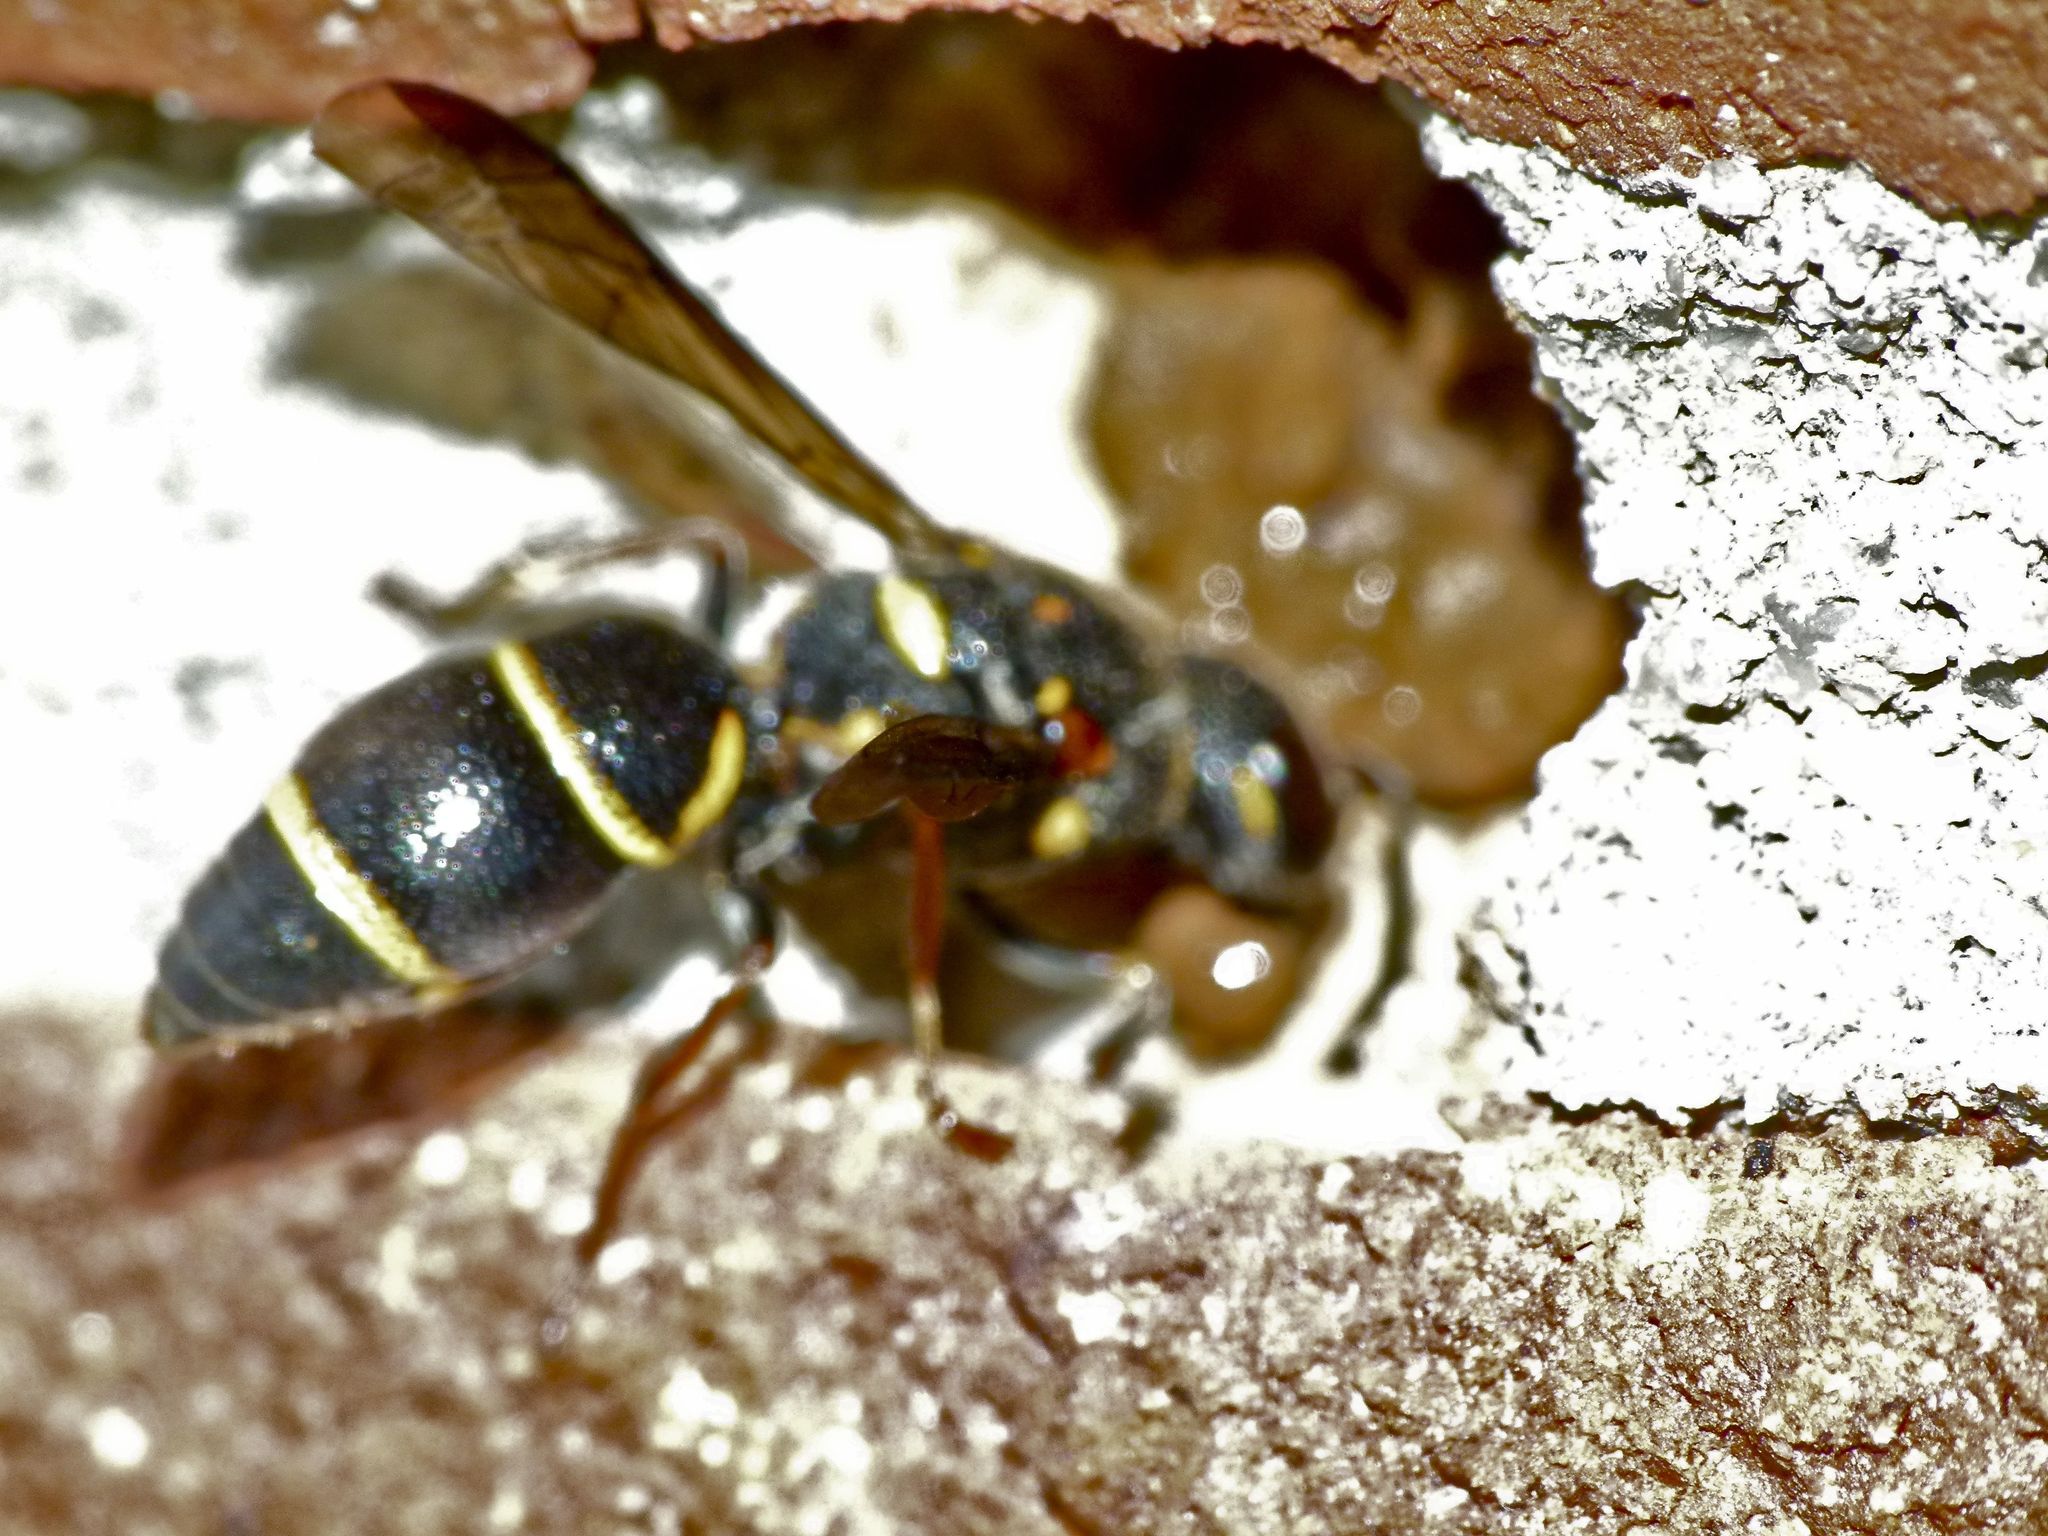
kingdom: Animalia
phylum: Arthropoda
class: Insecta
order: Hymenoptera
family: Eumenidae
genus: Parancistrocerus
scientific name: Parancistrocerus fulvipes
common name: Potter wasp
